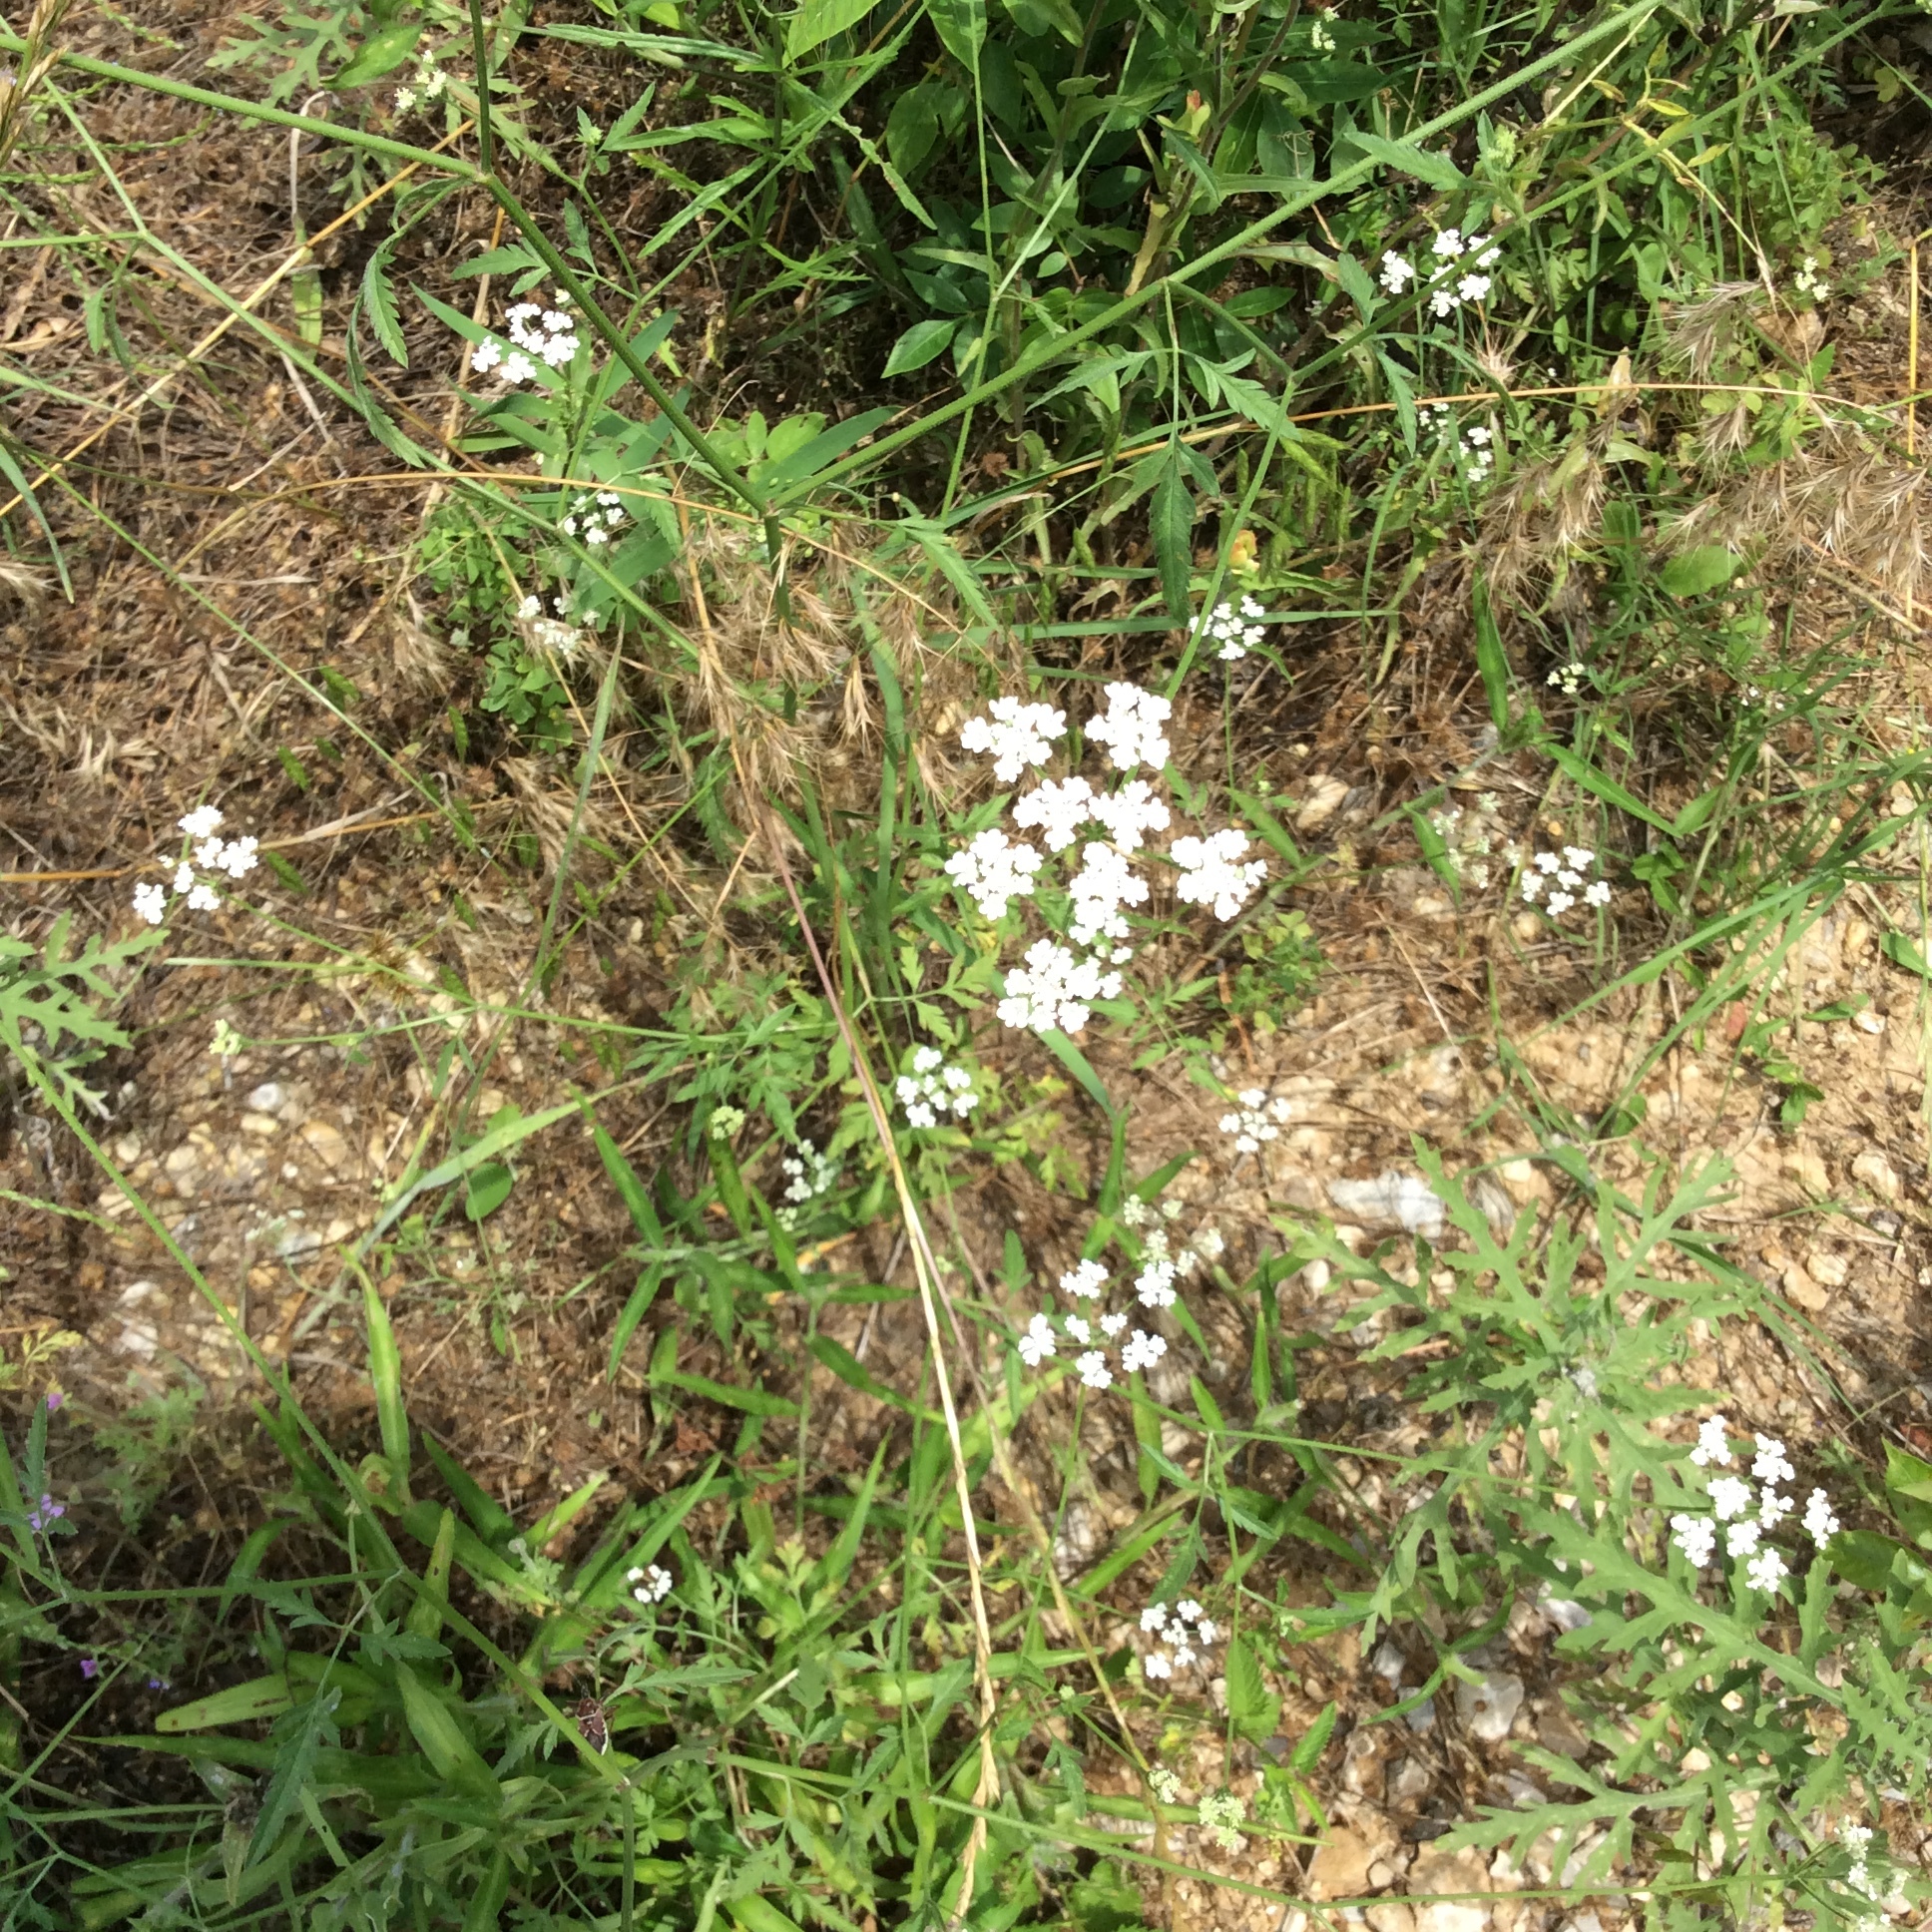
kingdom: Plantae
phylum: Tracheophyta
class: Magnoliopsida
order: Apiales
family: Apiaceae
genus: Torilis
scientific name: Torilis arvensis
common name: Spreading hedge-parsley
